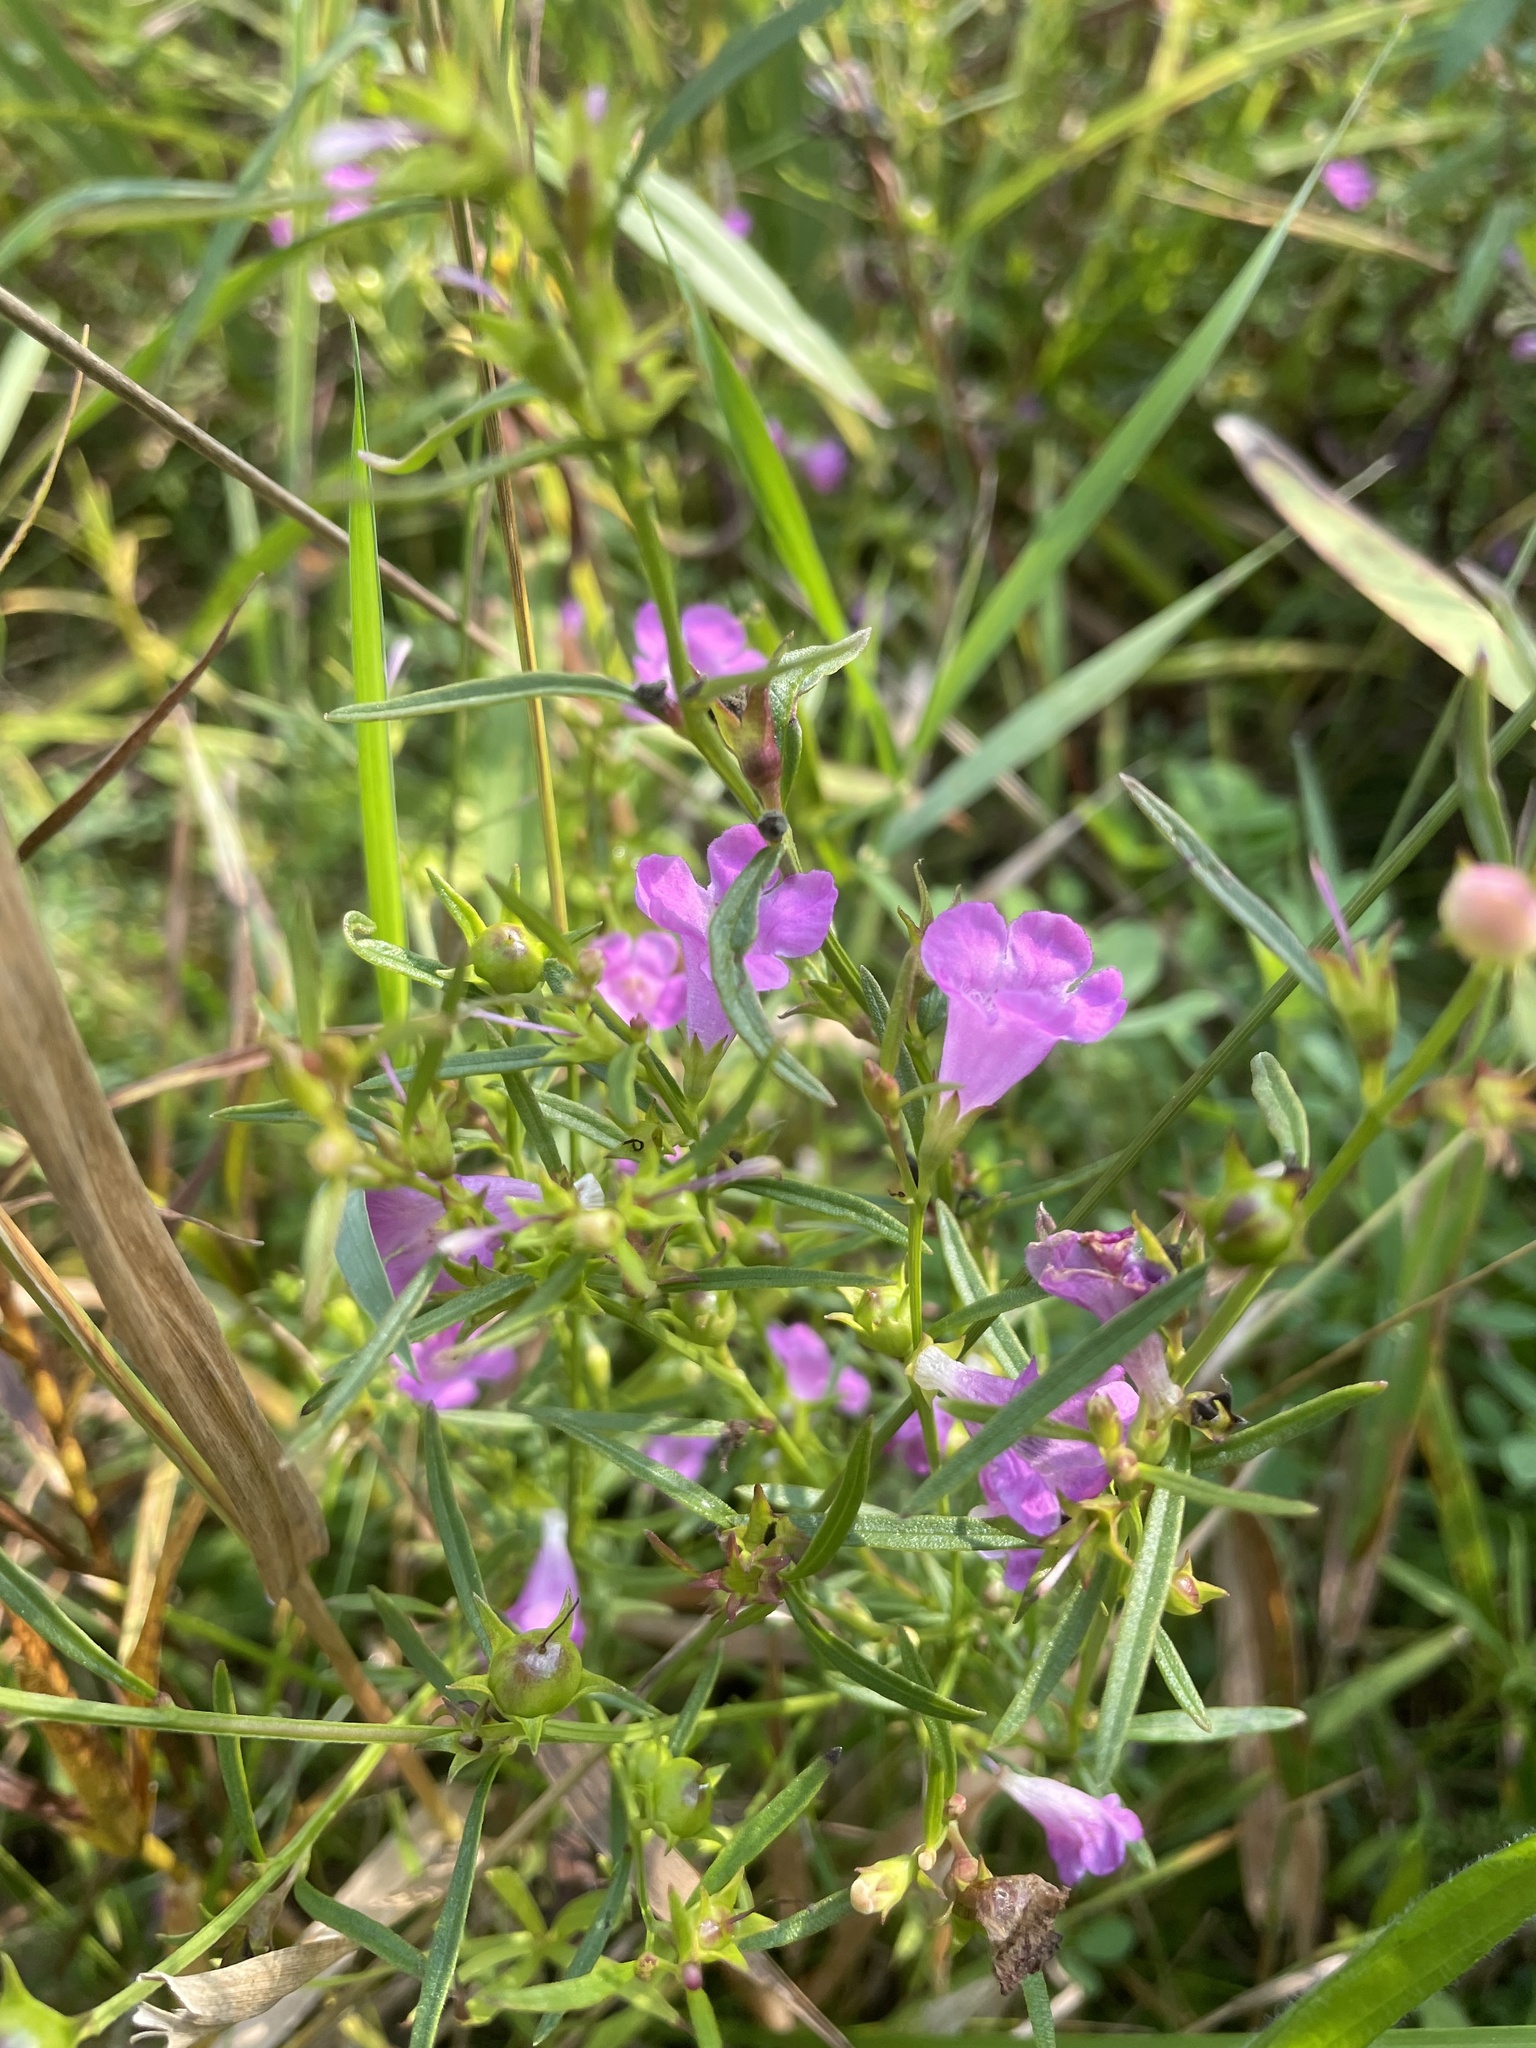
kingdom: Plantae
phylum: Tracheophyta
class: Magnoliopsida
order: Lamiales
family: Orobanchaceae
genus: Agalinis
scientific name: Agalinis purpurea
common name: Purple false foxglove
